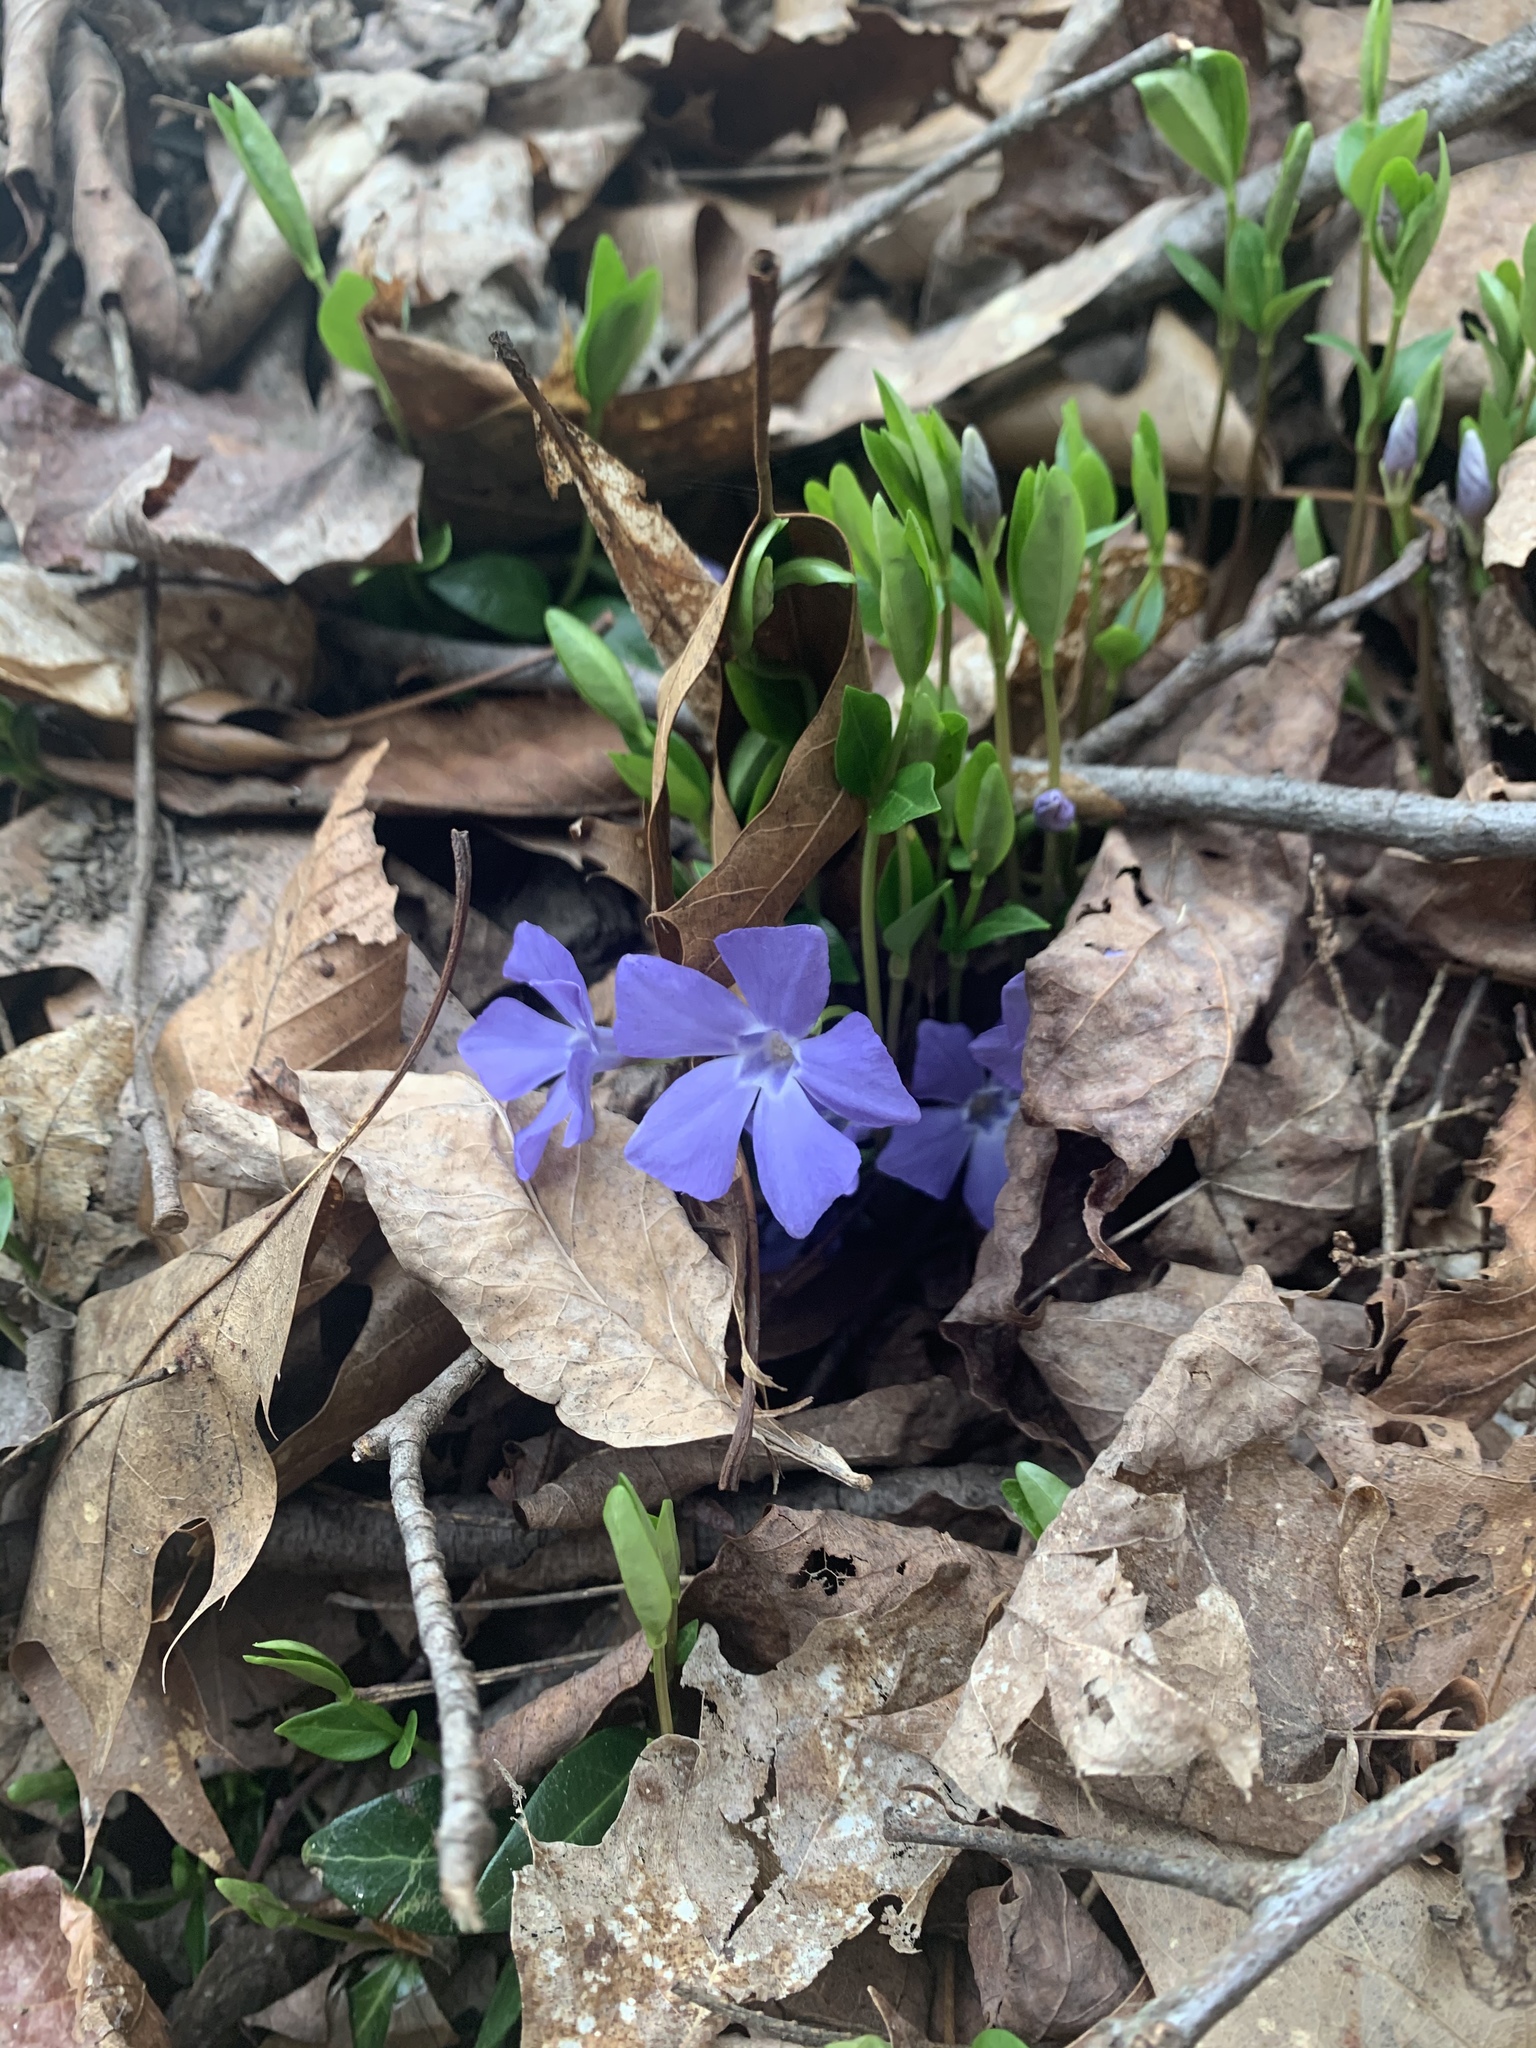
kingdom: Plantae
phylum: Tracheophyta
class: Magnoliopsida
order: Gentianales
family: Apocynaceae
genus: Vinca
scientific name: Vinca minor
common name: Lesser periwinkle
